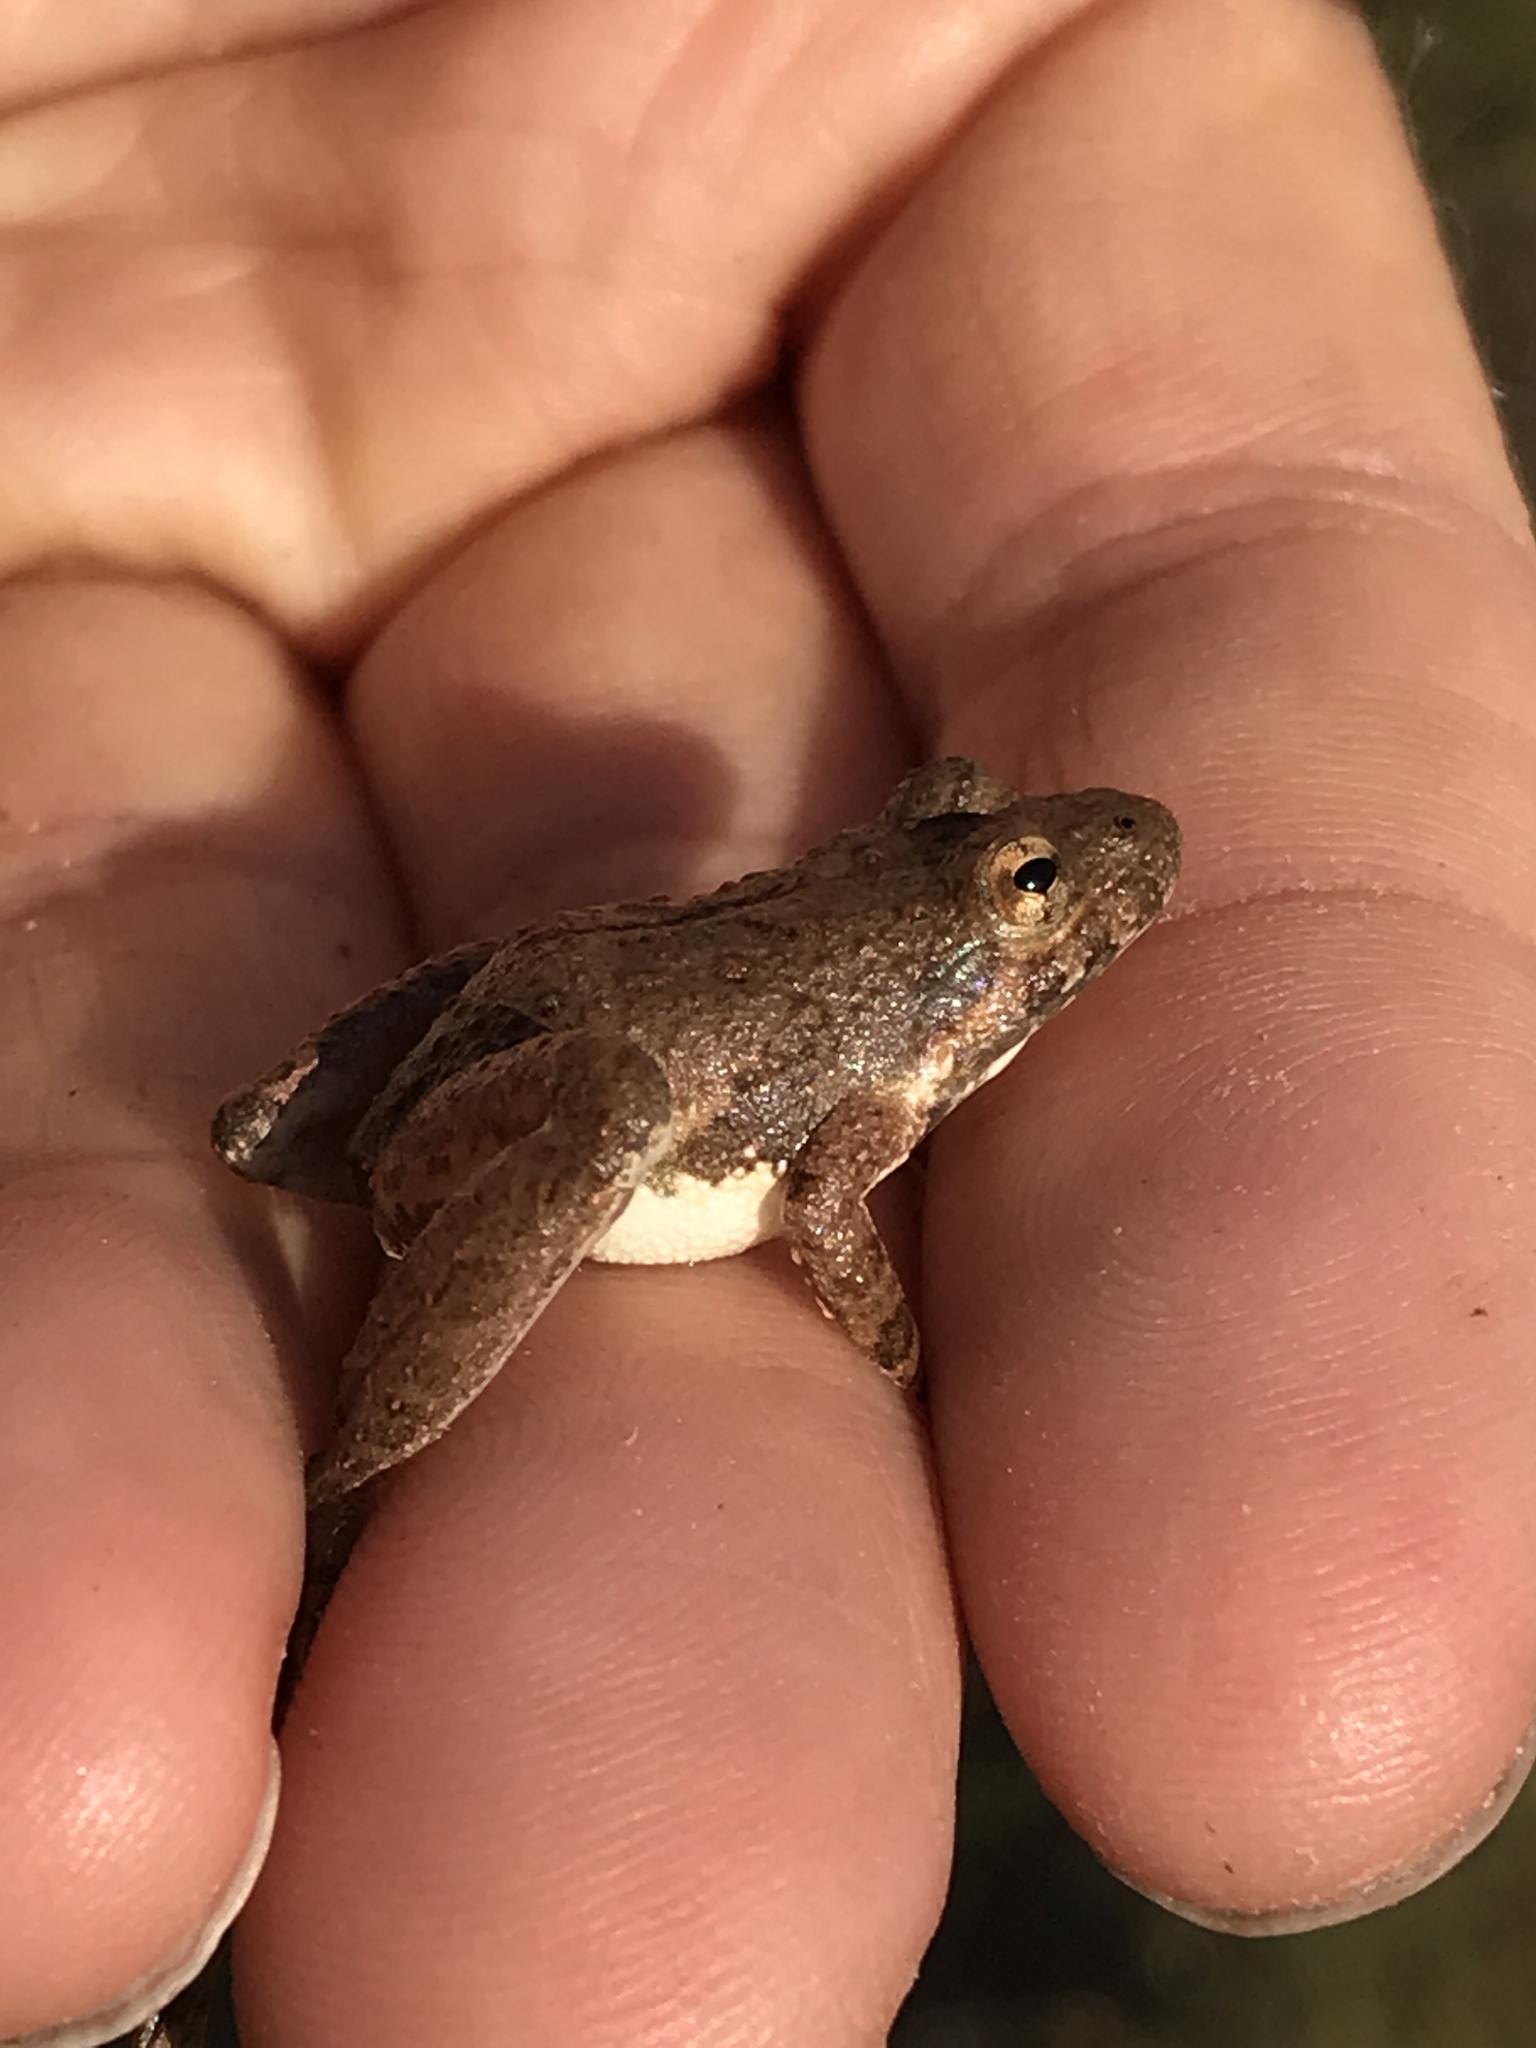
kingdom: Animalia
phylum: Chordata
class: Amphibia
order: Anura
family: Hylidae
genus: Acris
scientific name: Acris blanchardi
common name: Blanchard's cricket frog
